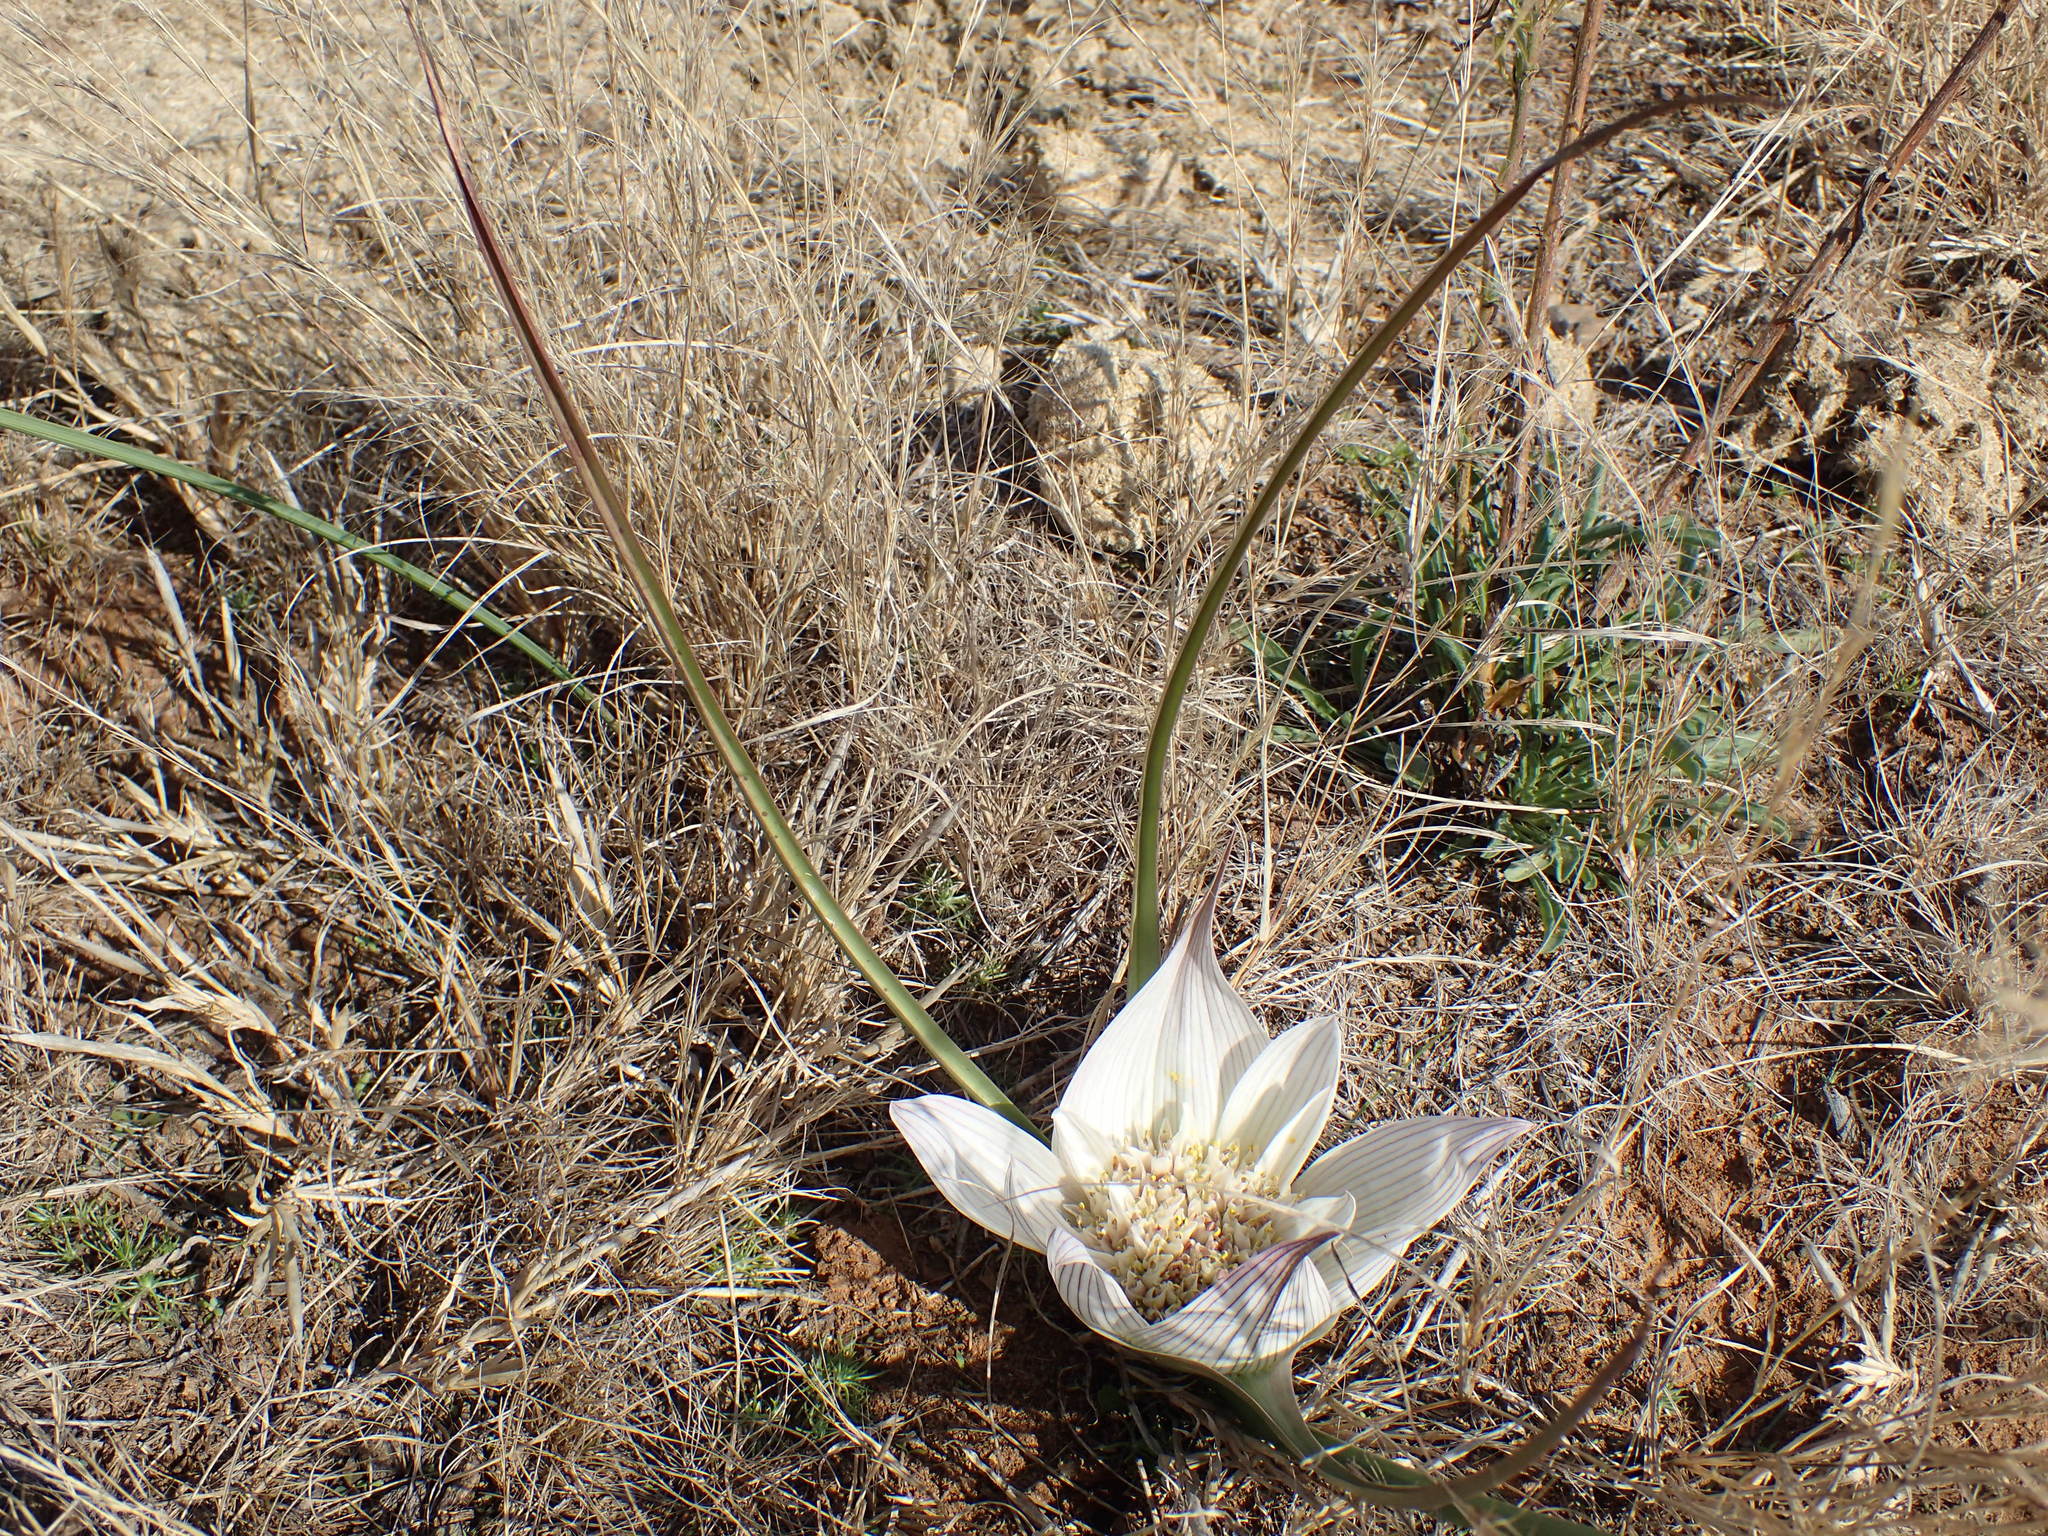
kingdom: Plantae
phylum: Tracheophyta
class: Liliopsida
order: Liliales
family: Colchicaceae
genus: Colchicum
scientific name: Colchicum melanthioides
